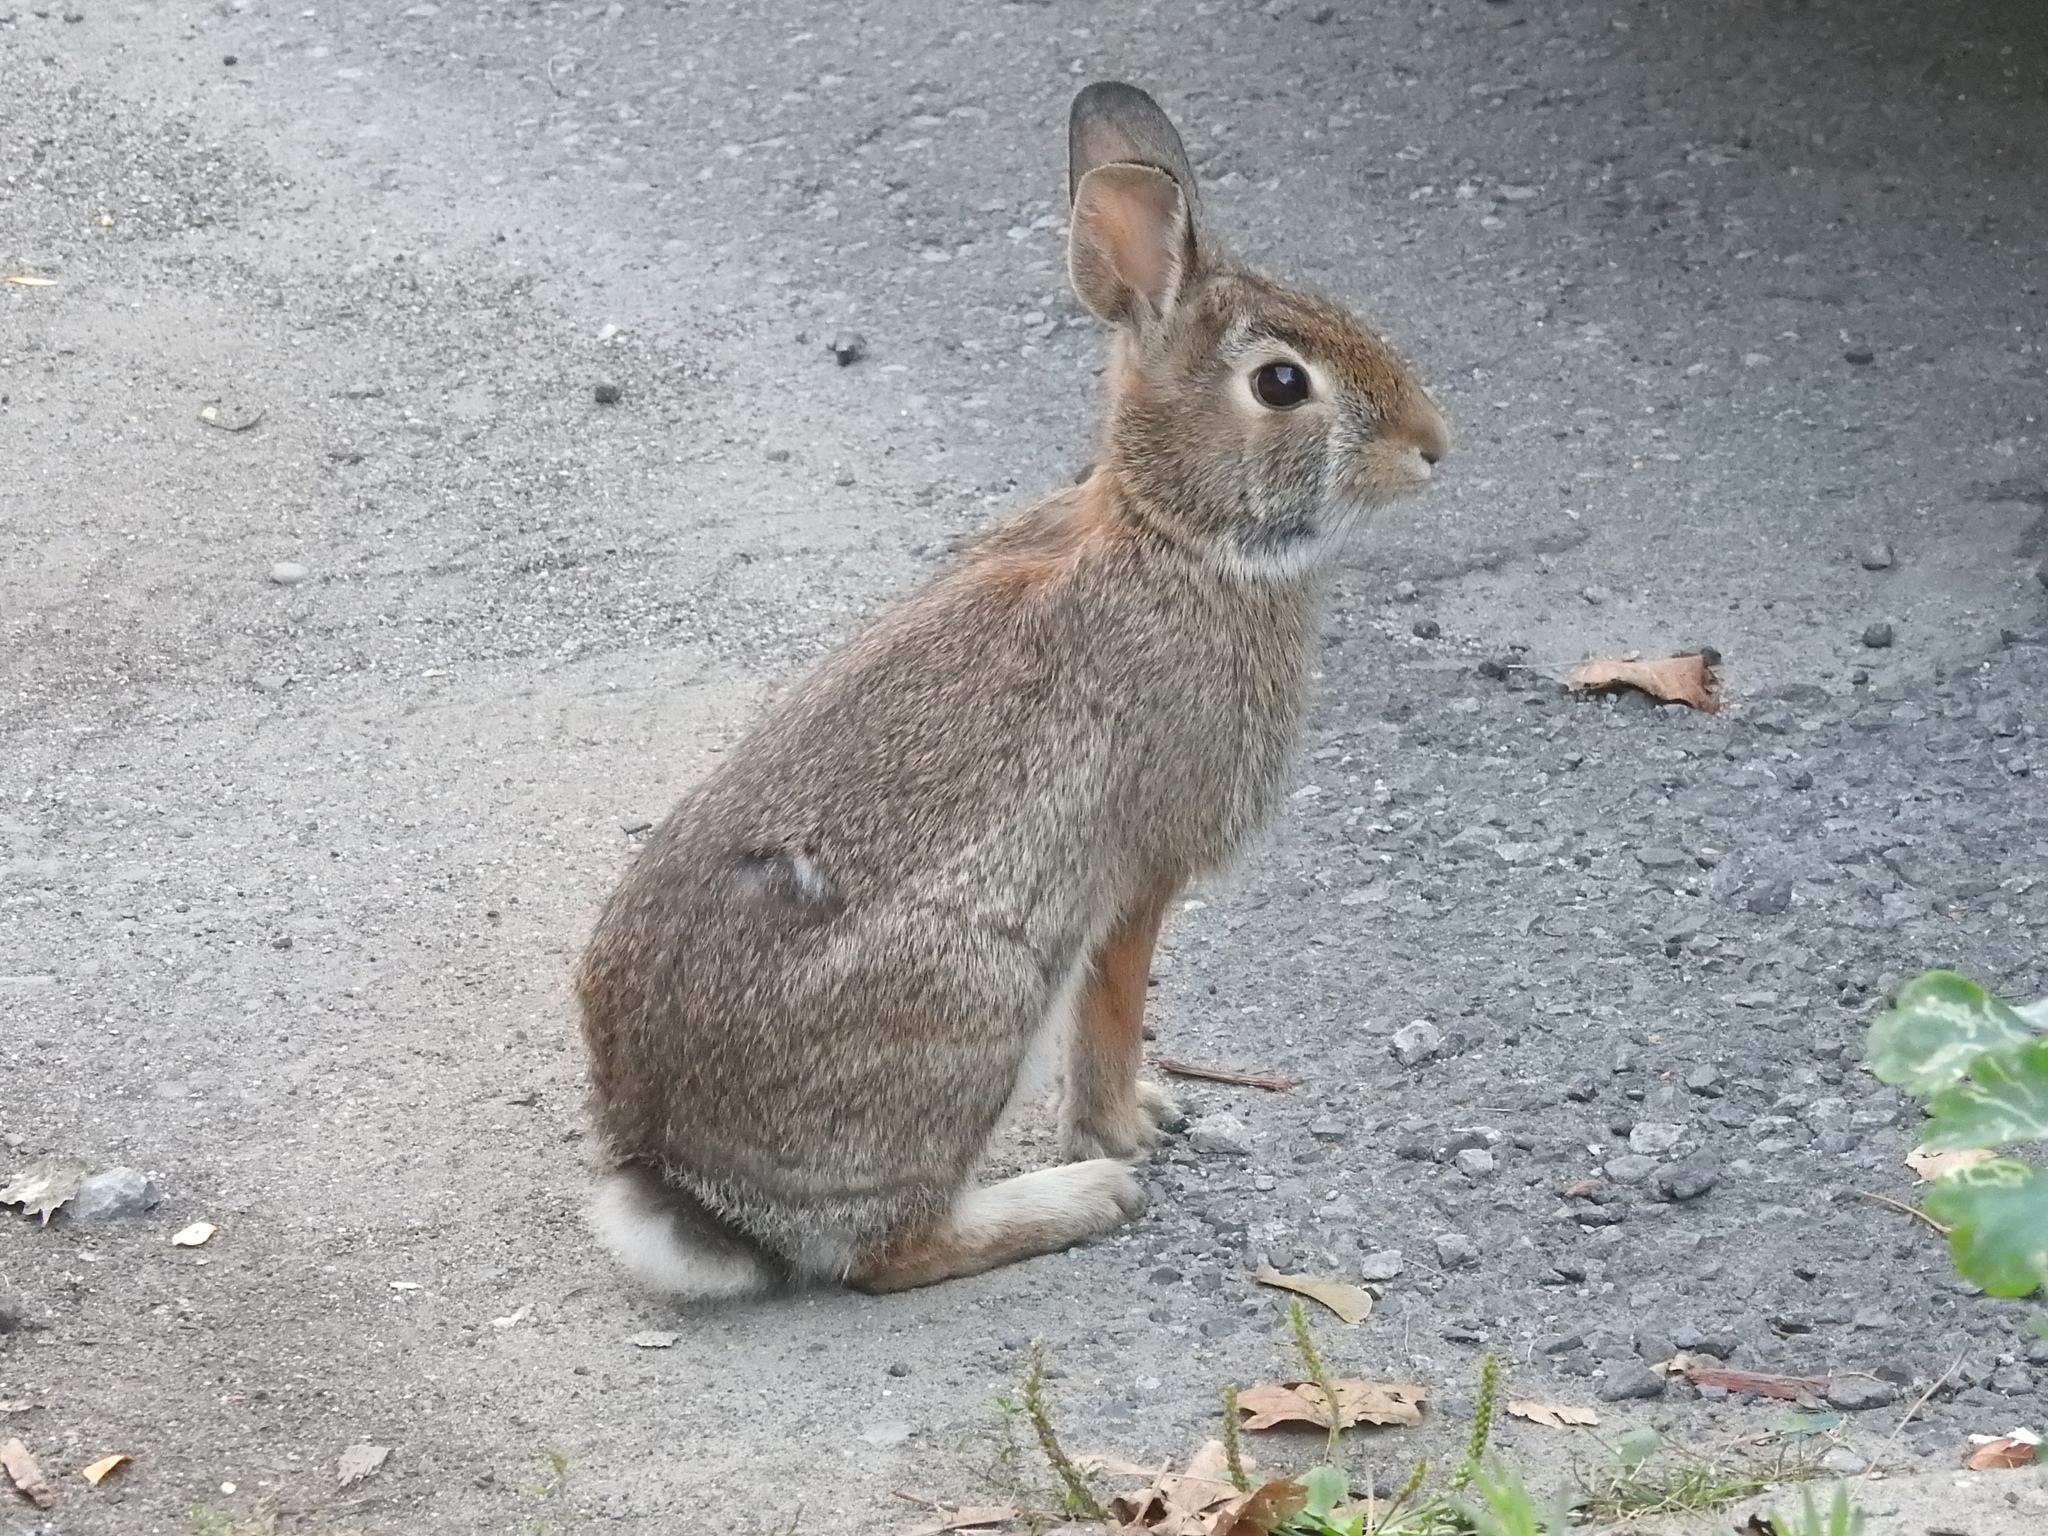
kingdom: Animalia
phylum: Chordata
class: Mammalia
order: Lagomorpha
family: Leporidae
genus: Sylvilagus
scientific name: Sylvilagus floridanus
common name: Eastern cottontail
